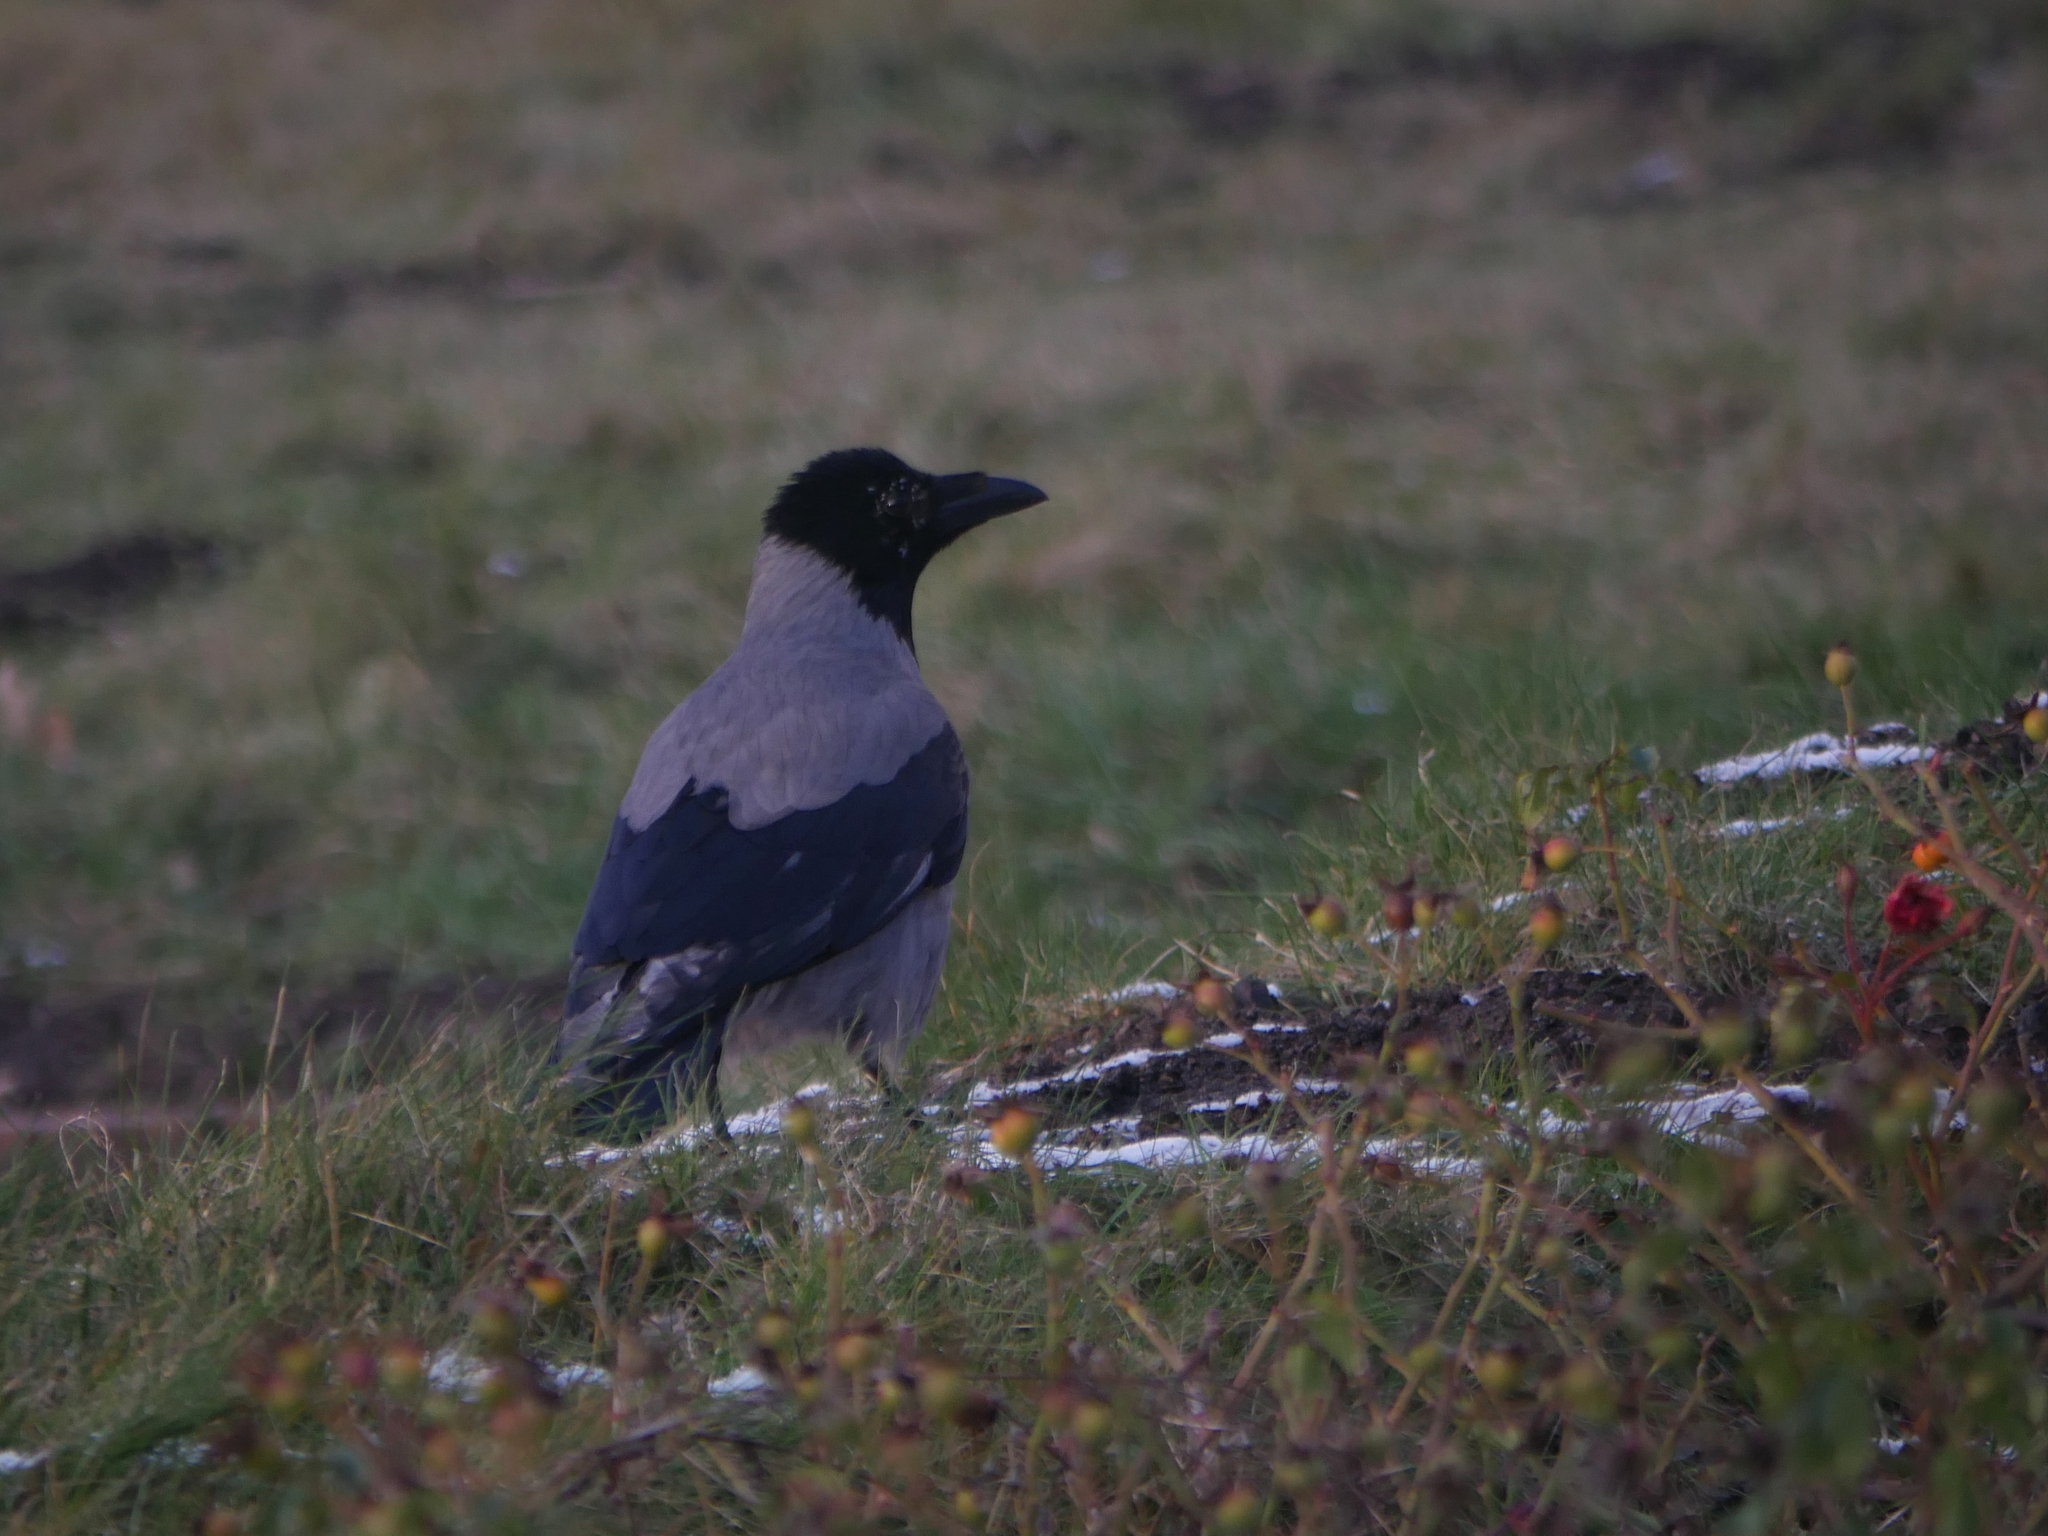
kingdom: Animalia
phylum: Chordata
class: Aves
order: Passeriformes
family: Corvidae
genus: Corvus
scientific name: Corvus cornix
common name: Hooded crow
